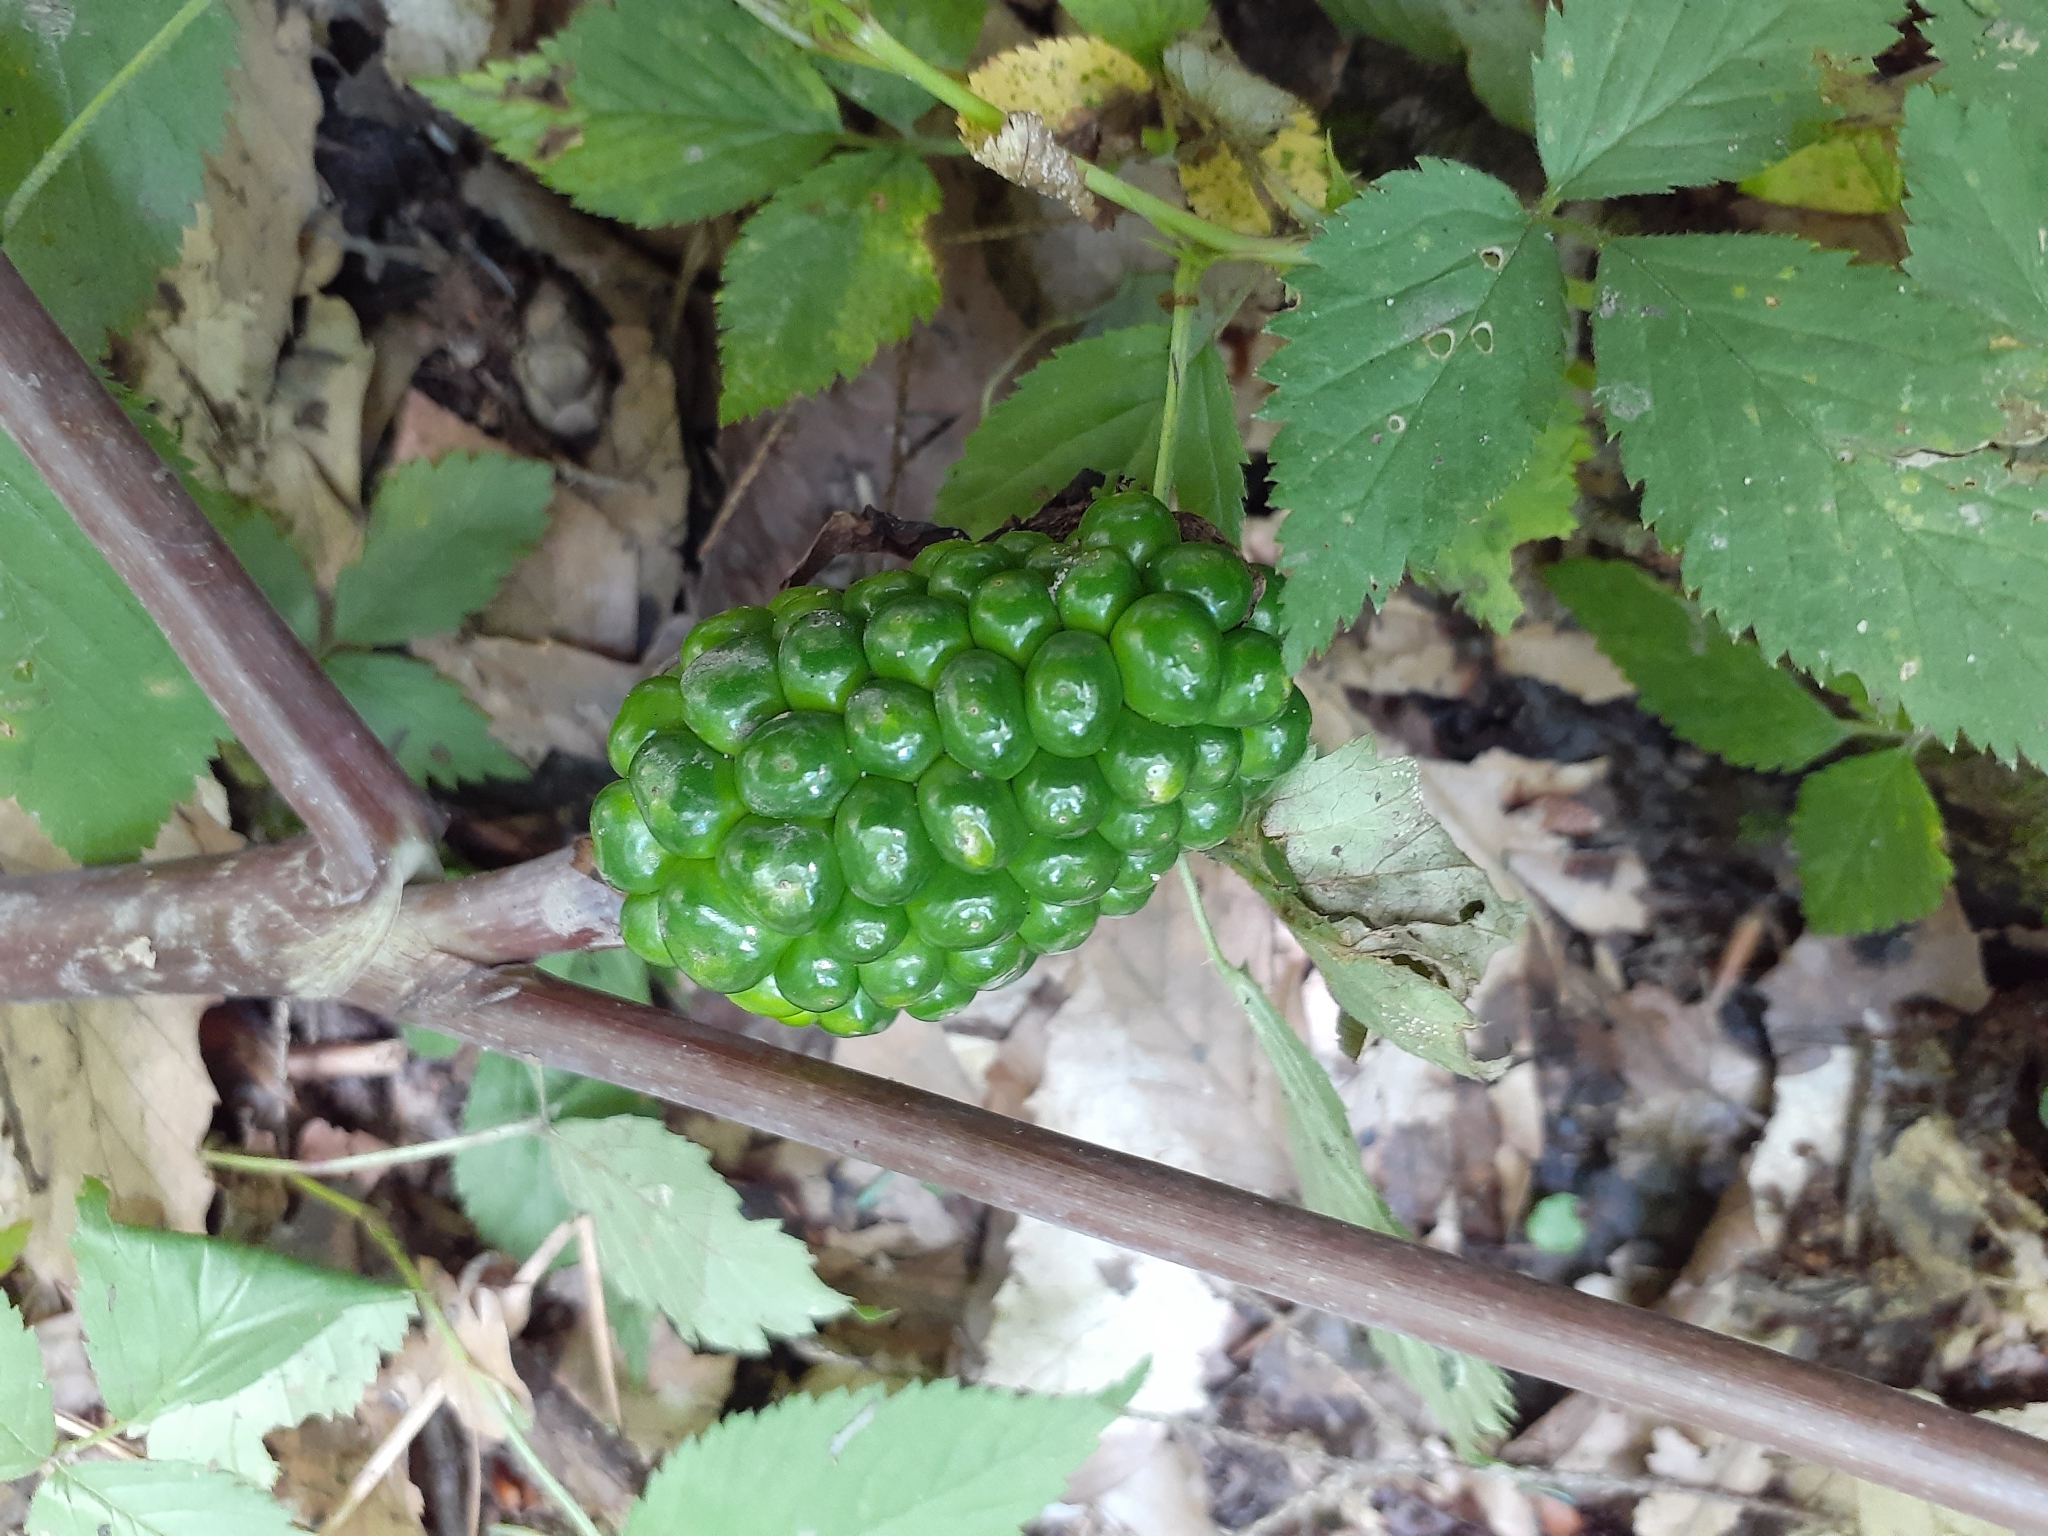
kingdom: Plantae
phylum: Tracheophyta
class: Liliopsida
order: Alismatales
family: Araceae
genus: Arisaema
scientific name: Arisaema triphyllum
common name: Jack-in-the-pulpit
